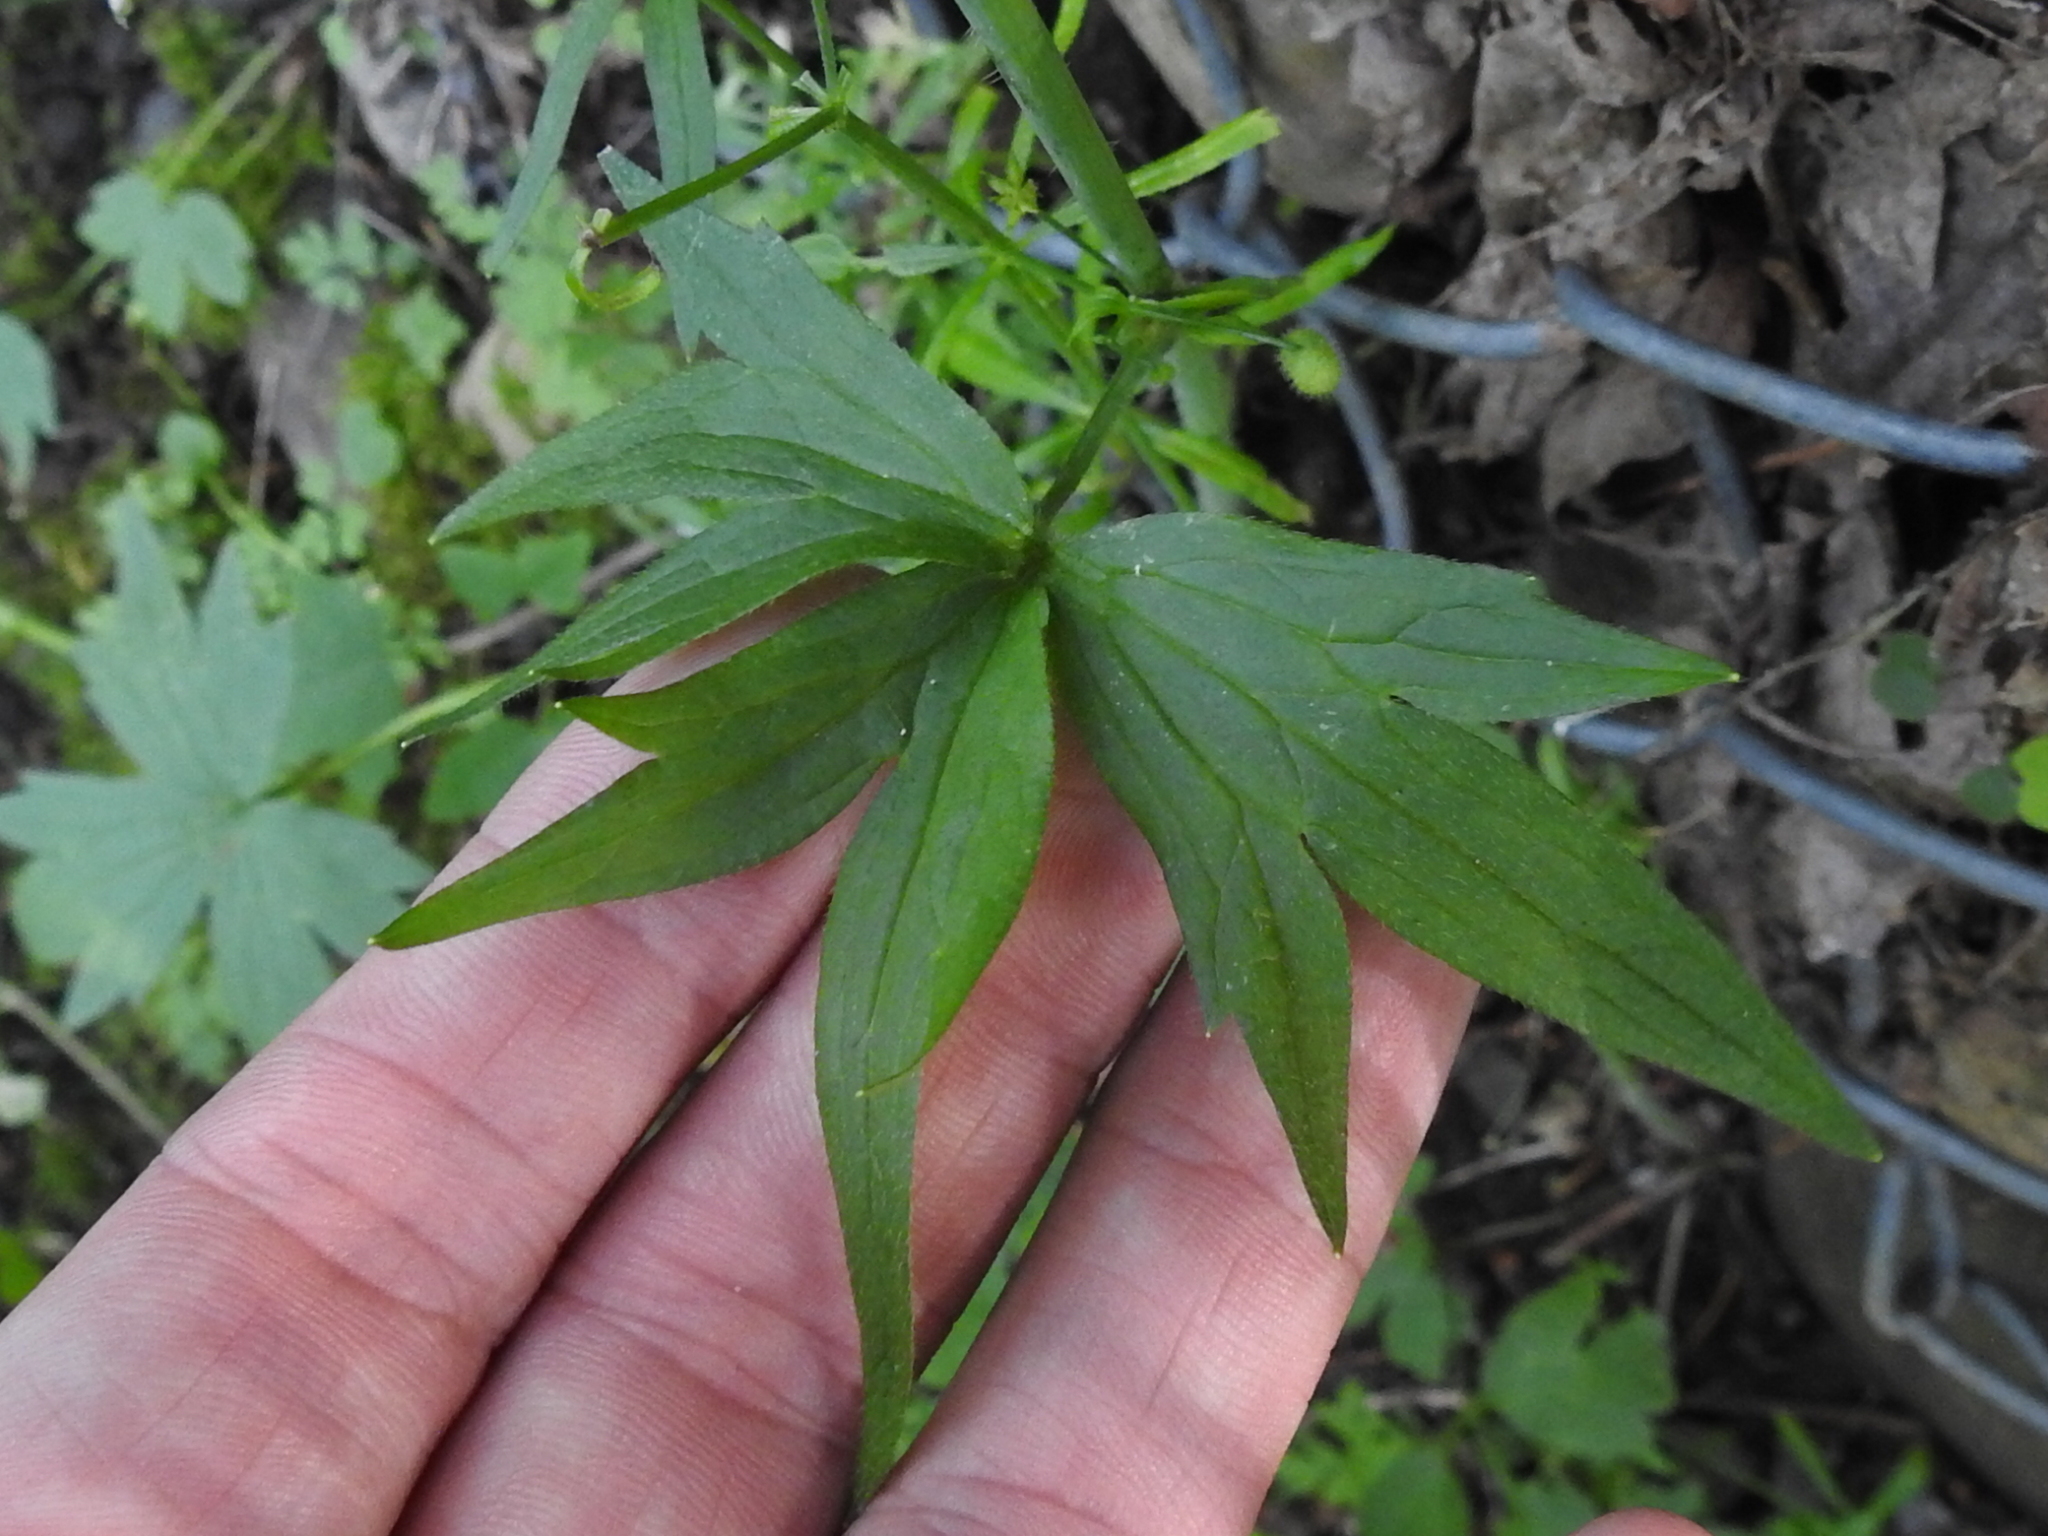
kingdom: Plantae
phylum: Tracheophyta
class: Magnoliopsida
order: Ranunculales
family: Ranunculaceae
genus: Ranunculus
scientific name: Ranunculus occidentalis
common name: Western buttercup
